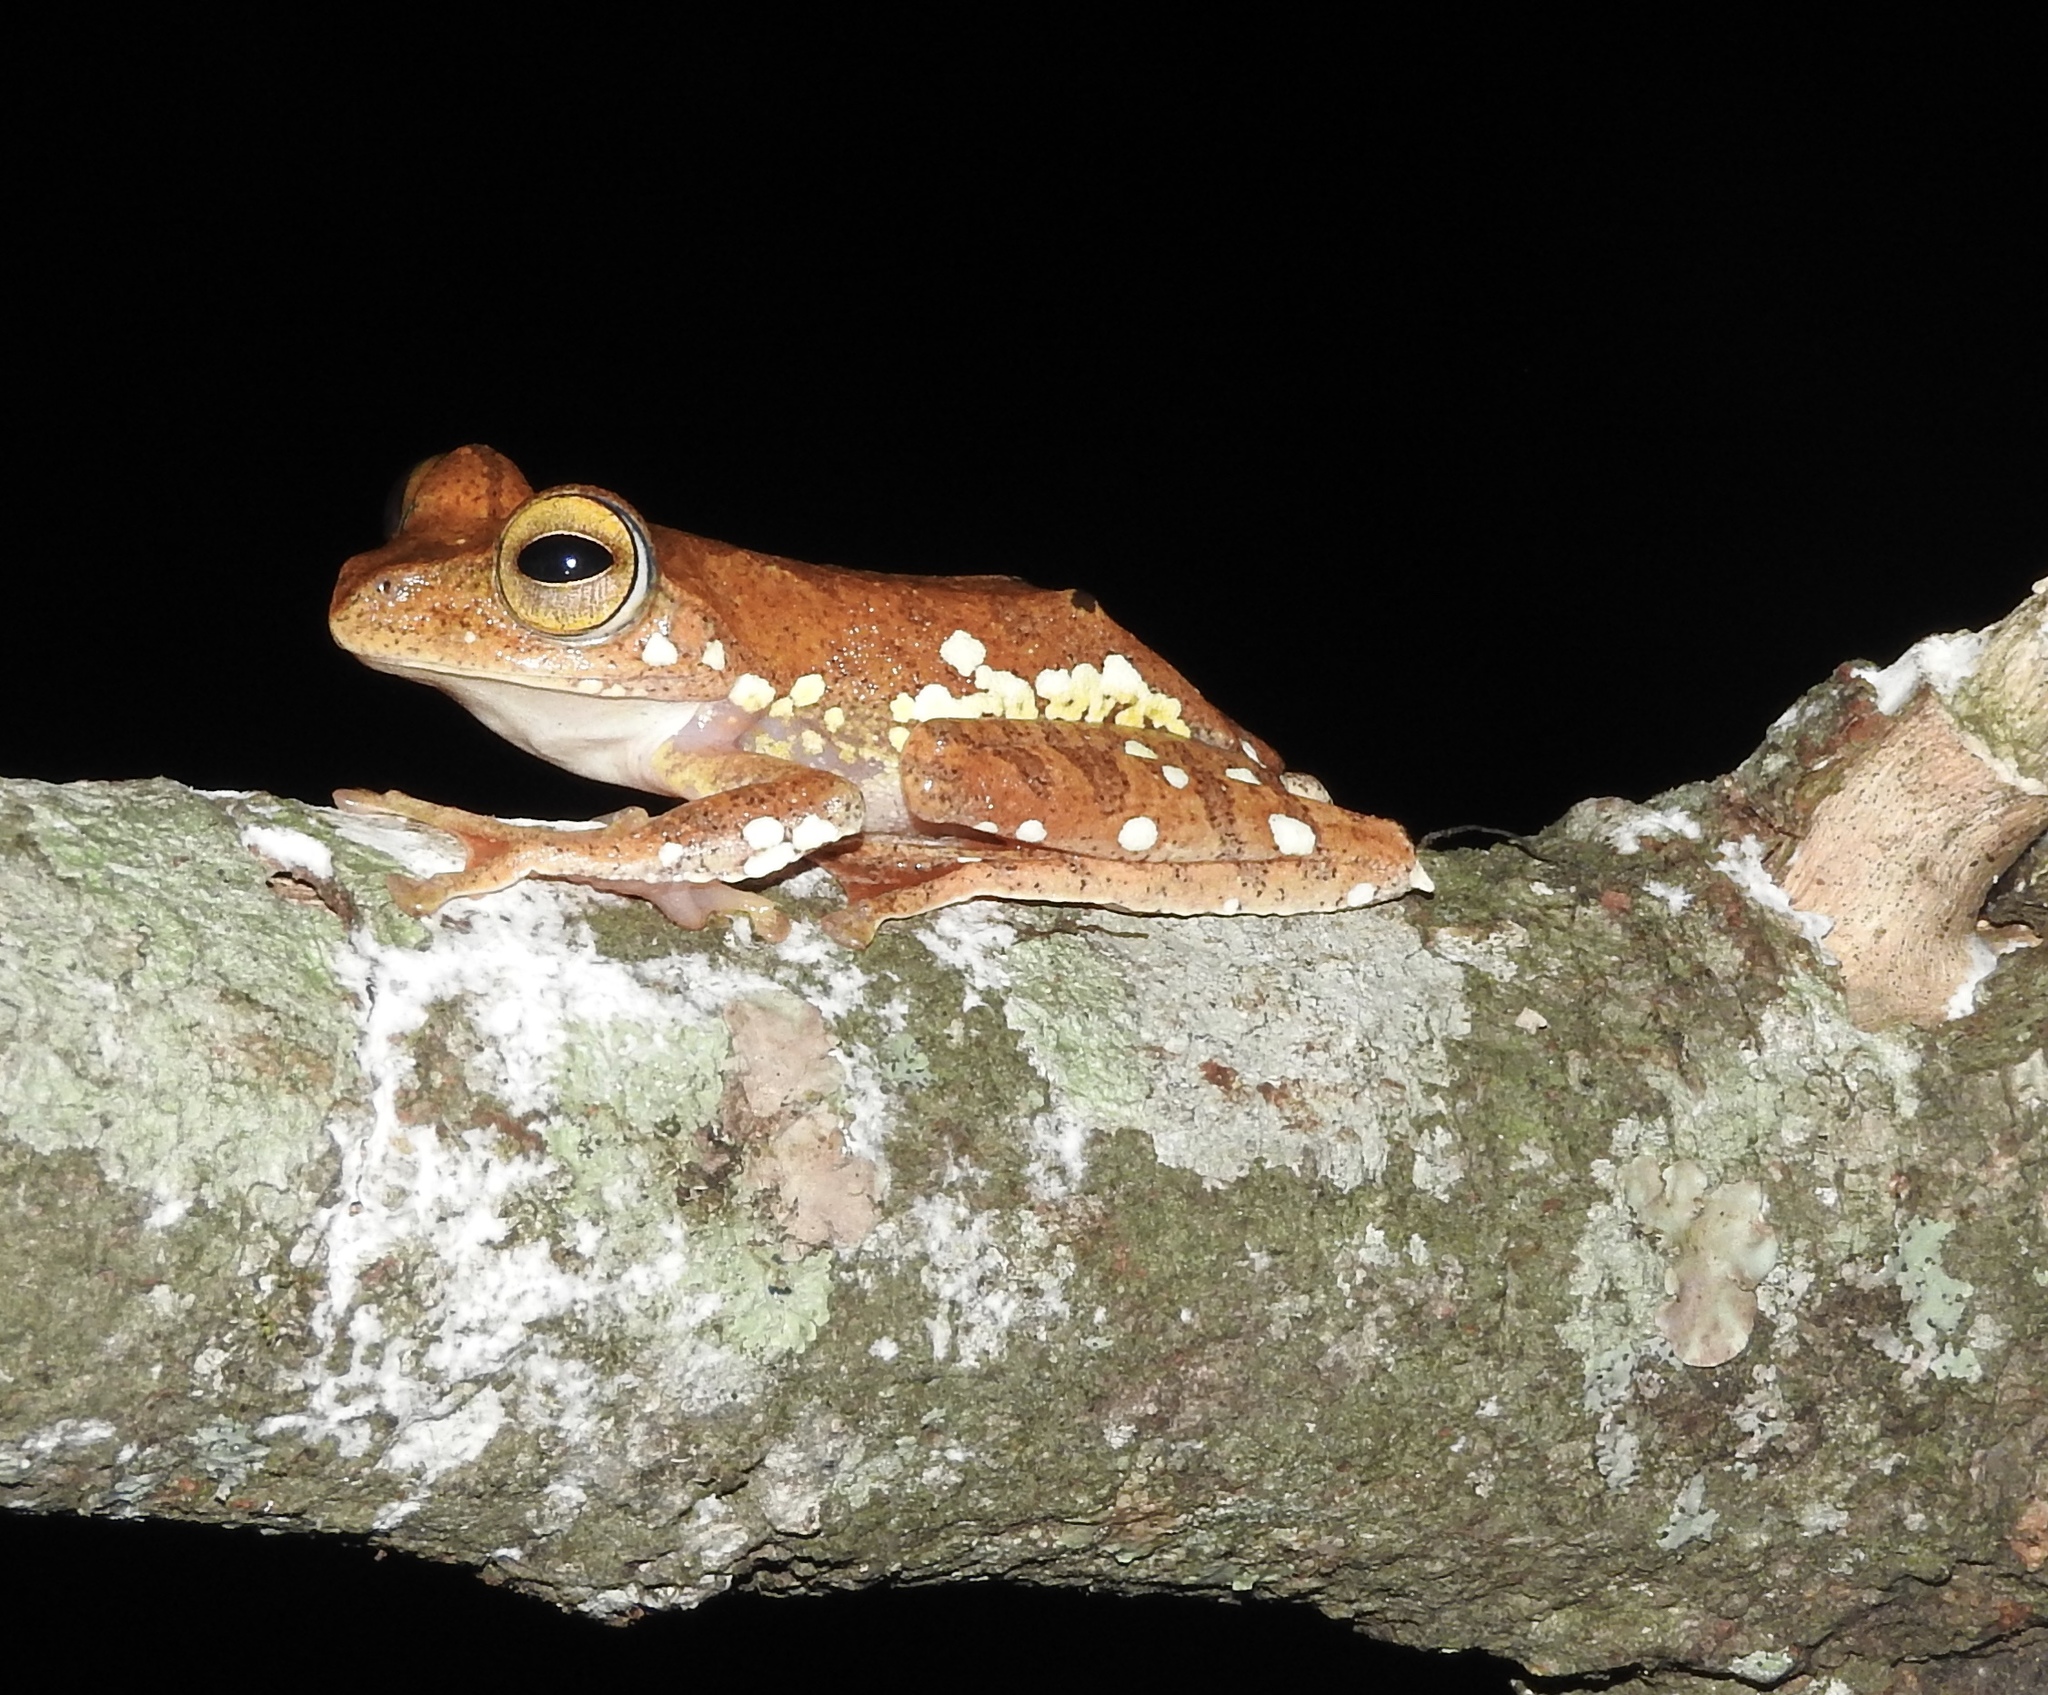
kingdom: Animalia
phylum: Chordata
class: Amphibia
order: Anura
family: Rhacophoridae
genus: Rhacophorus
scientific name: Rhacophorus margaritifer
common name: Java flying frog
